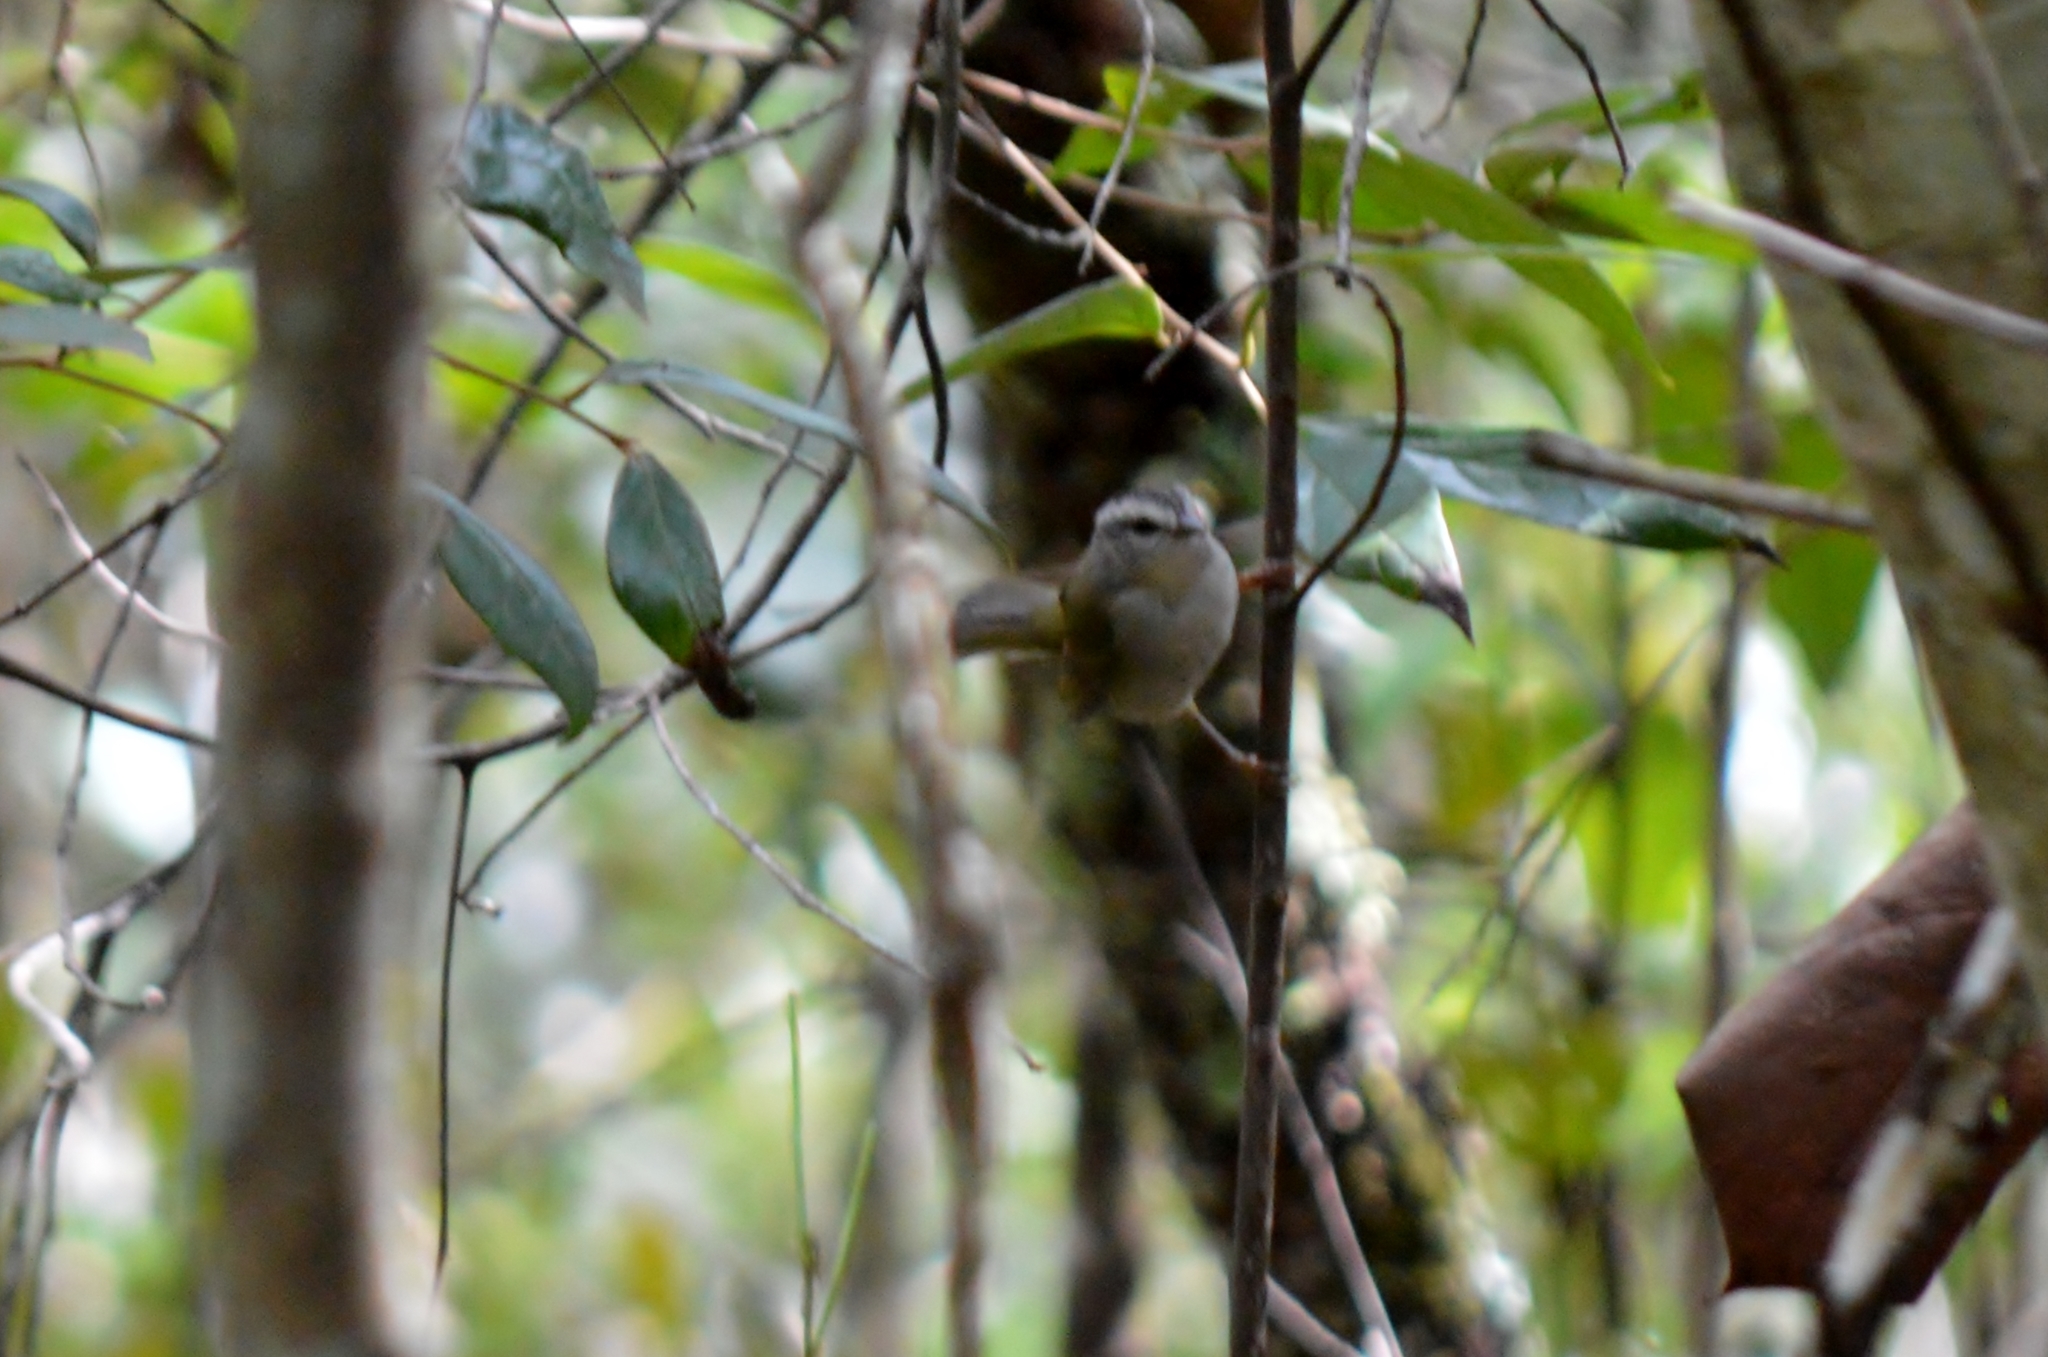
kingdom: Animalia
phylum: Chordata
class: Aves
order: Passeriformes
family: Parulidae
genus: Basileuterus
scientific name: Basileuterus culicivorus
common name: Golden-crowned warbler
